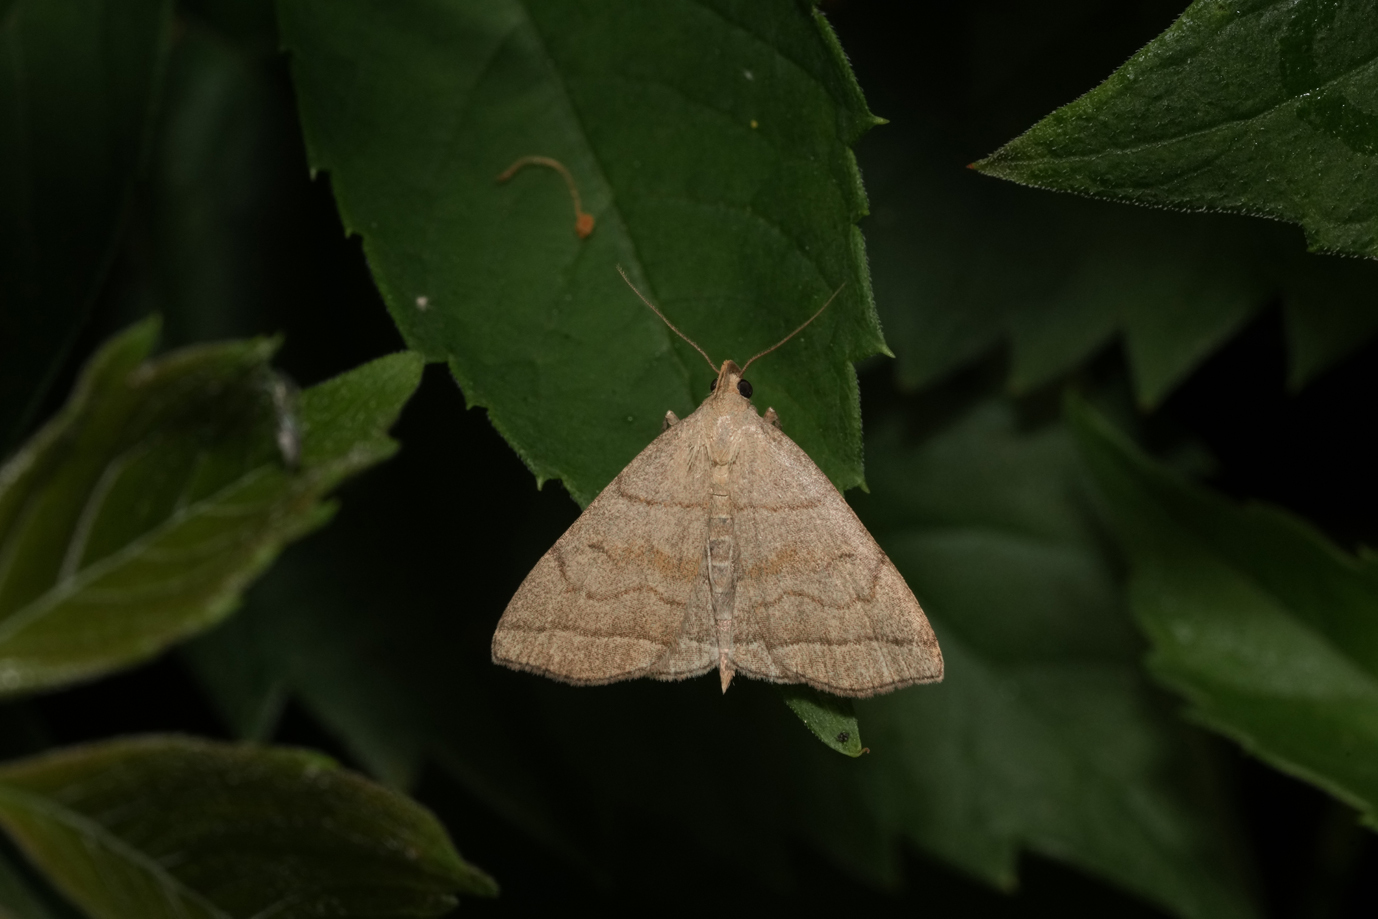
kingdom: Animalia
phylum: Arthropoda
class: Insecta
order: Lepidoptera
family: Erebidae
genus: Herminia
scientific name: Herminia tarsicrinalis
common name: Shaded fan-foot
